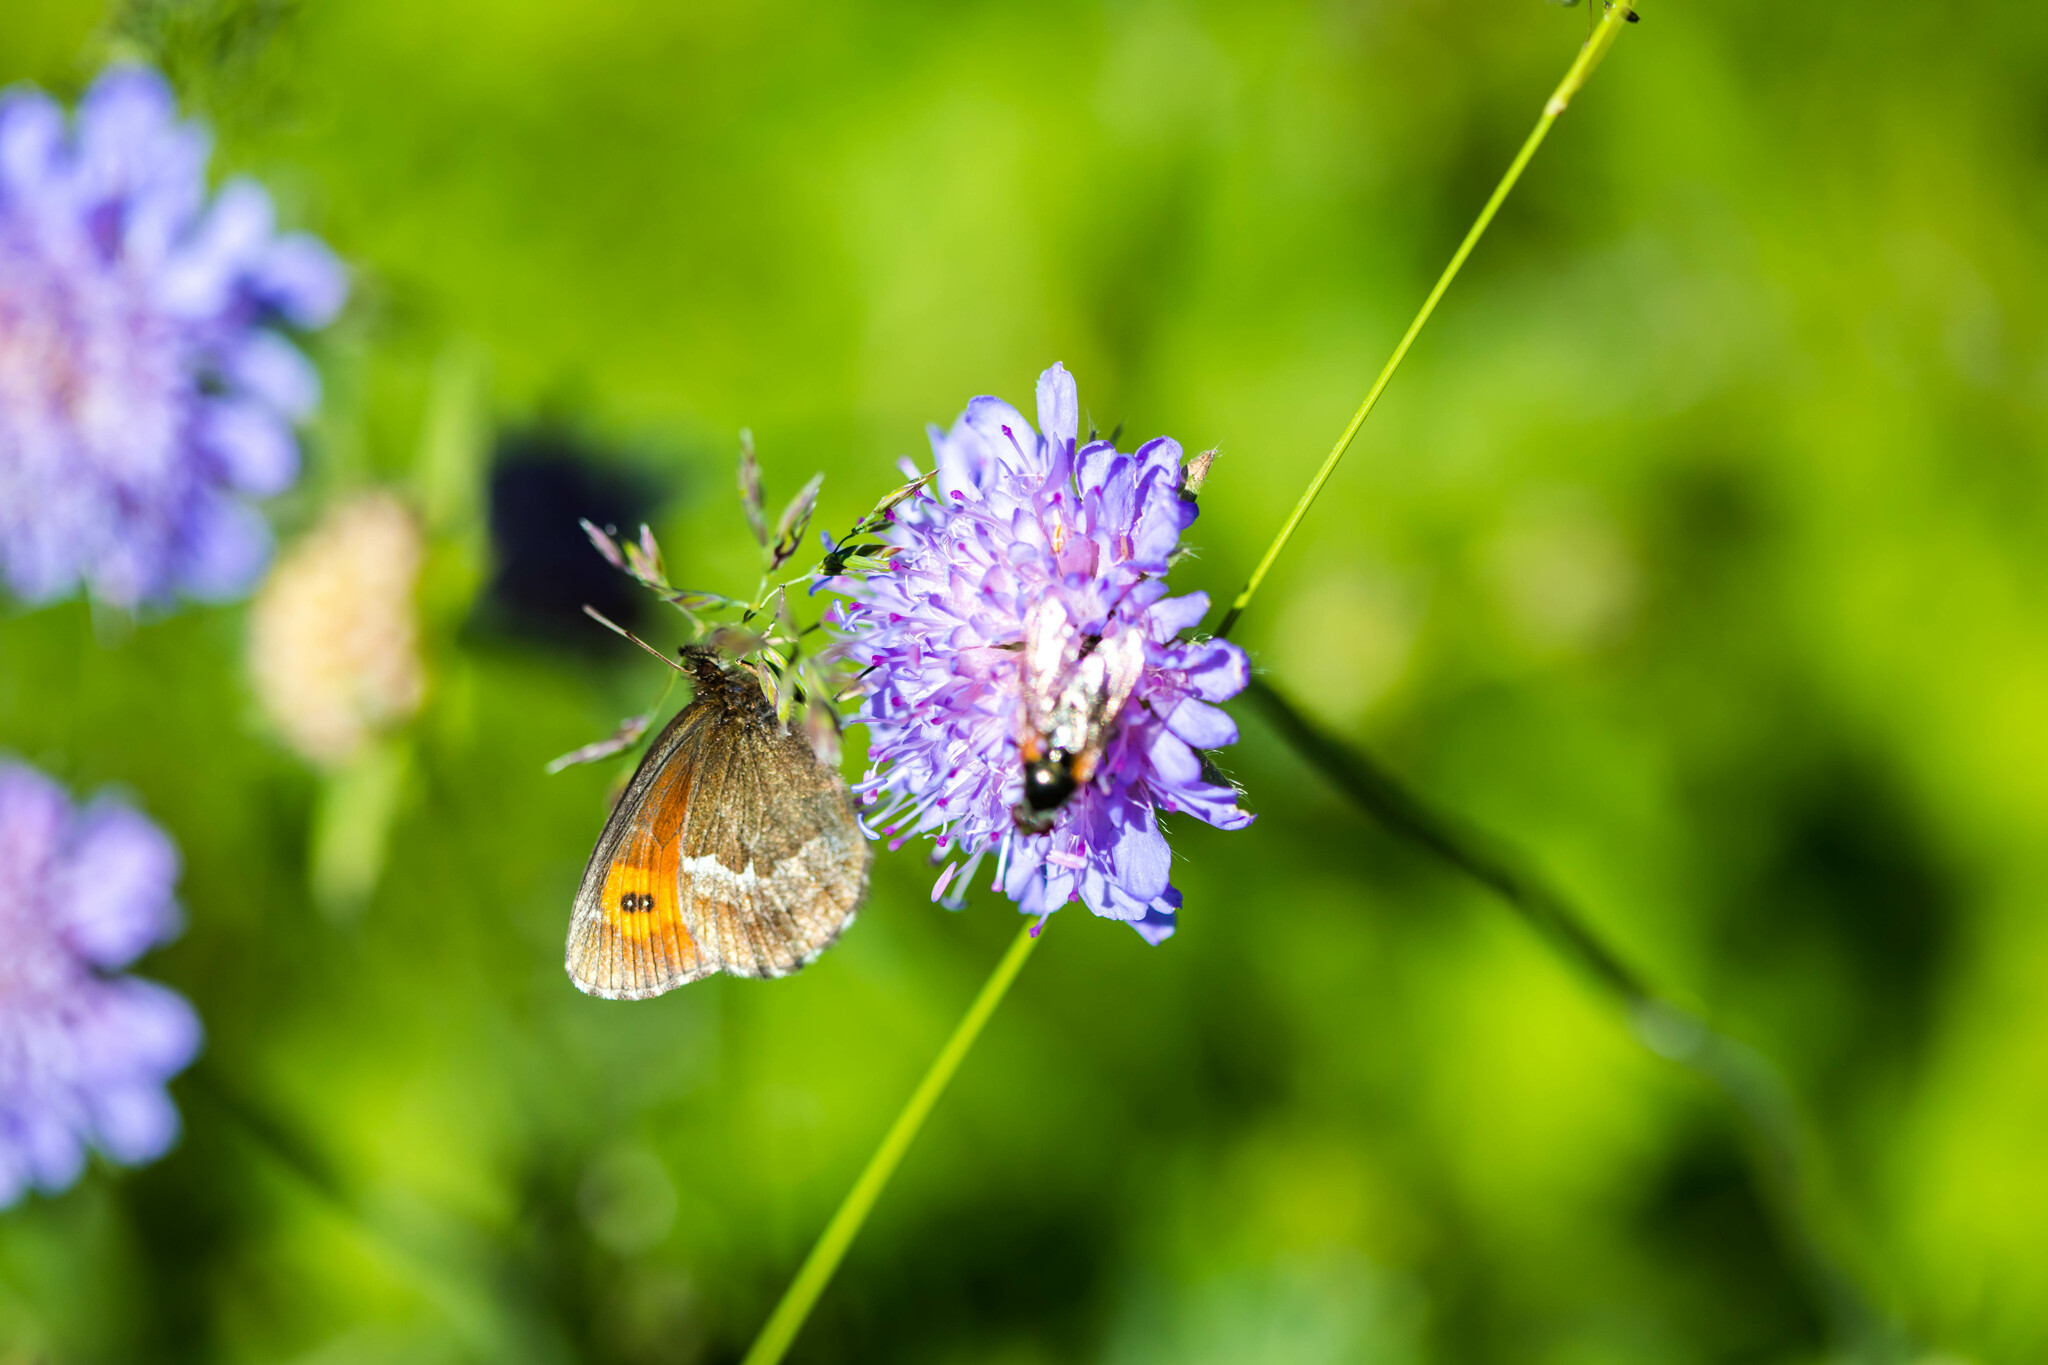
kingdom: Animalia
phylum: Arthropoda
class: Insecta
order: Lepidoptera
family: Nymphalidae
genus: Erebia
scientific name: Erebia euryale
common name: Large ringlet
